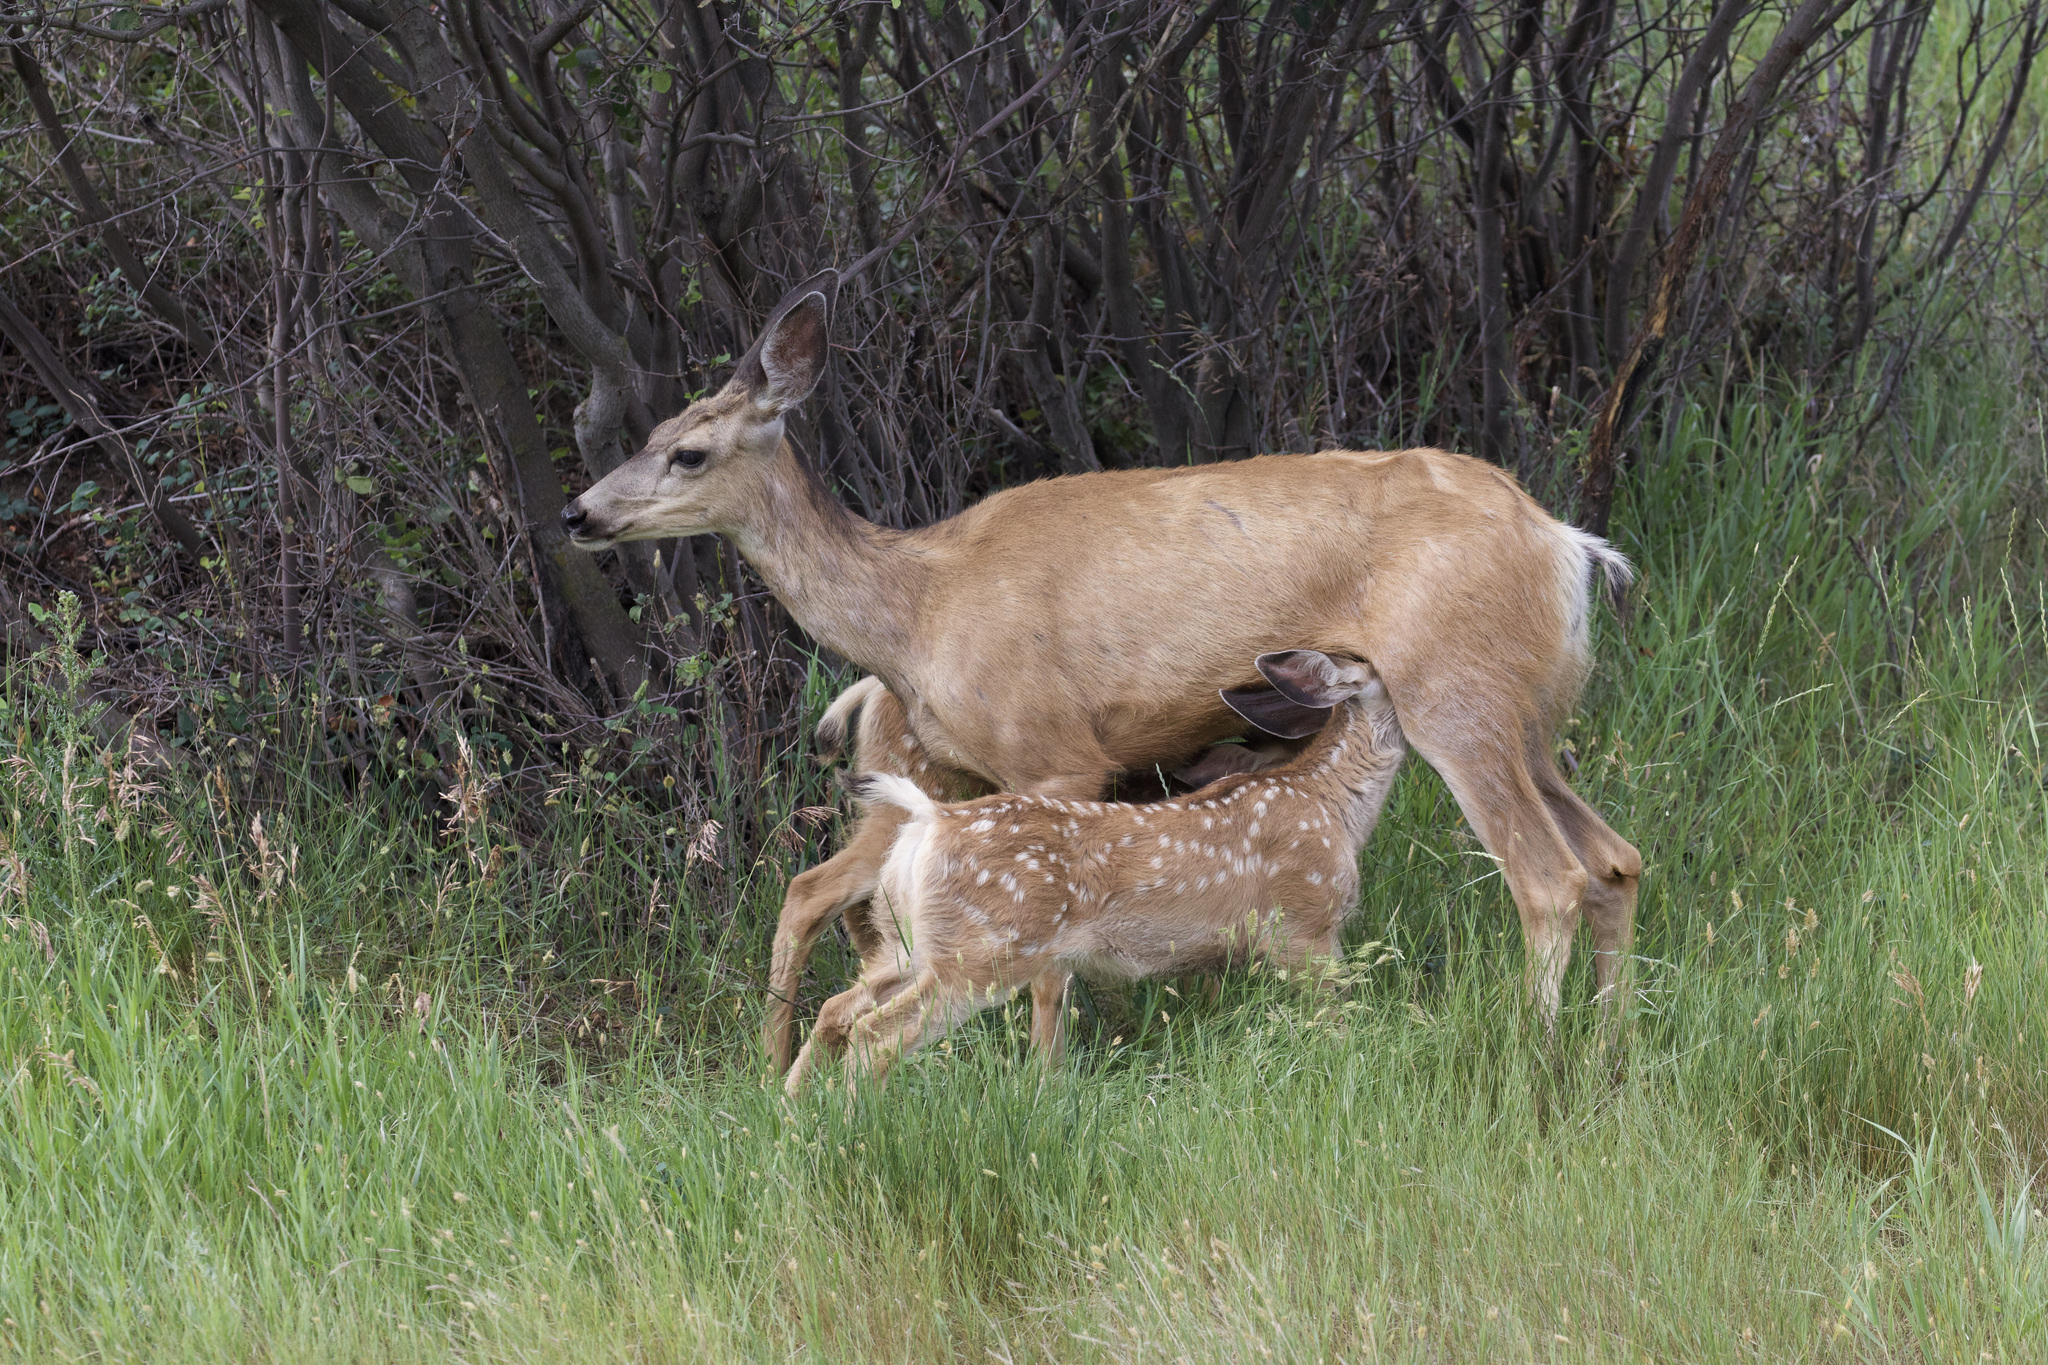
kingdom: Animalia
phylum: Chordata
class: Mammalia
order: Artiodactyla
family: Cervidae
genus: Odocoileus
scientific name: Odocoileus hemionus
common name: Mule deer
